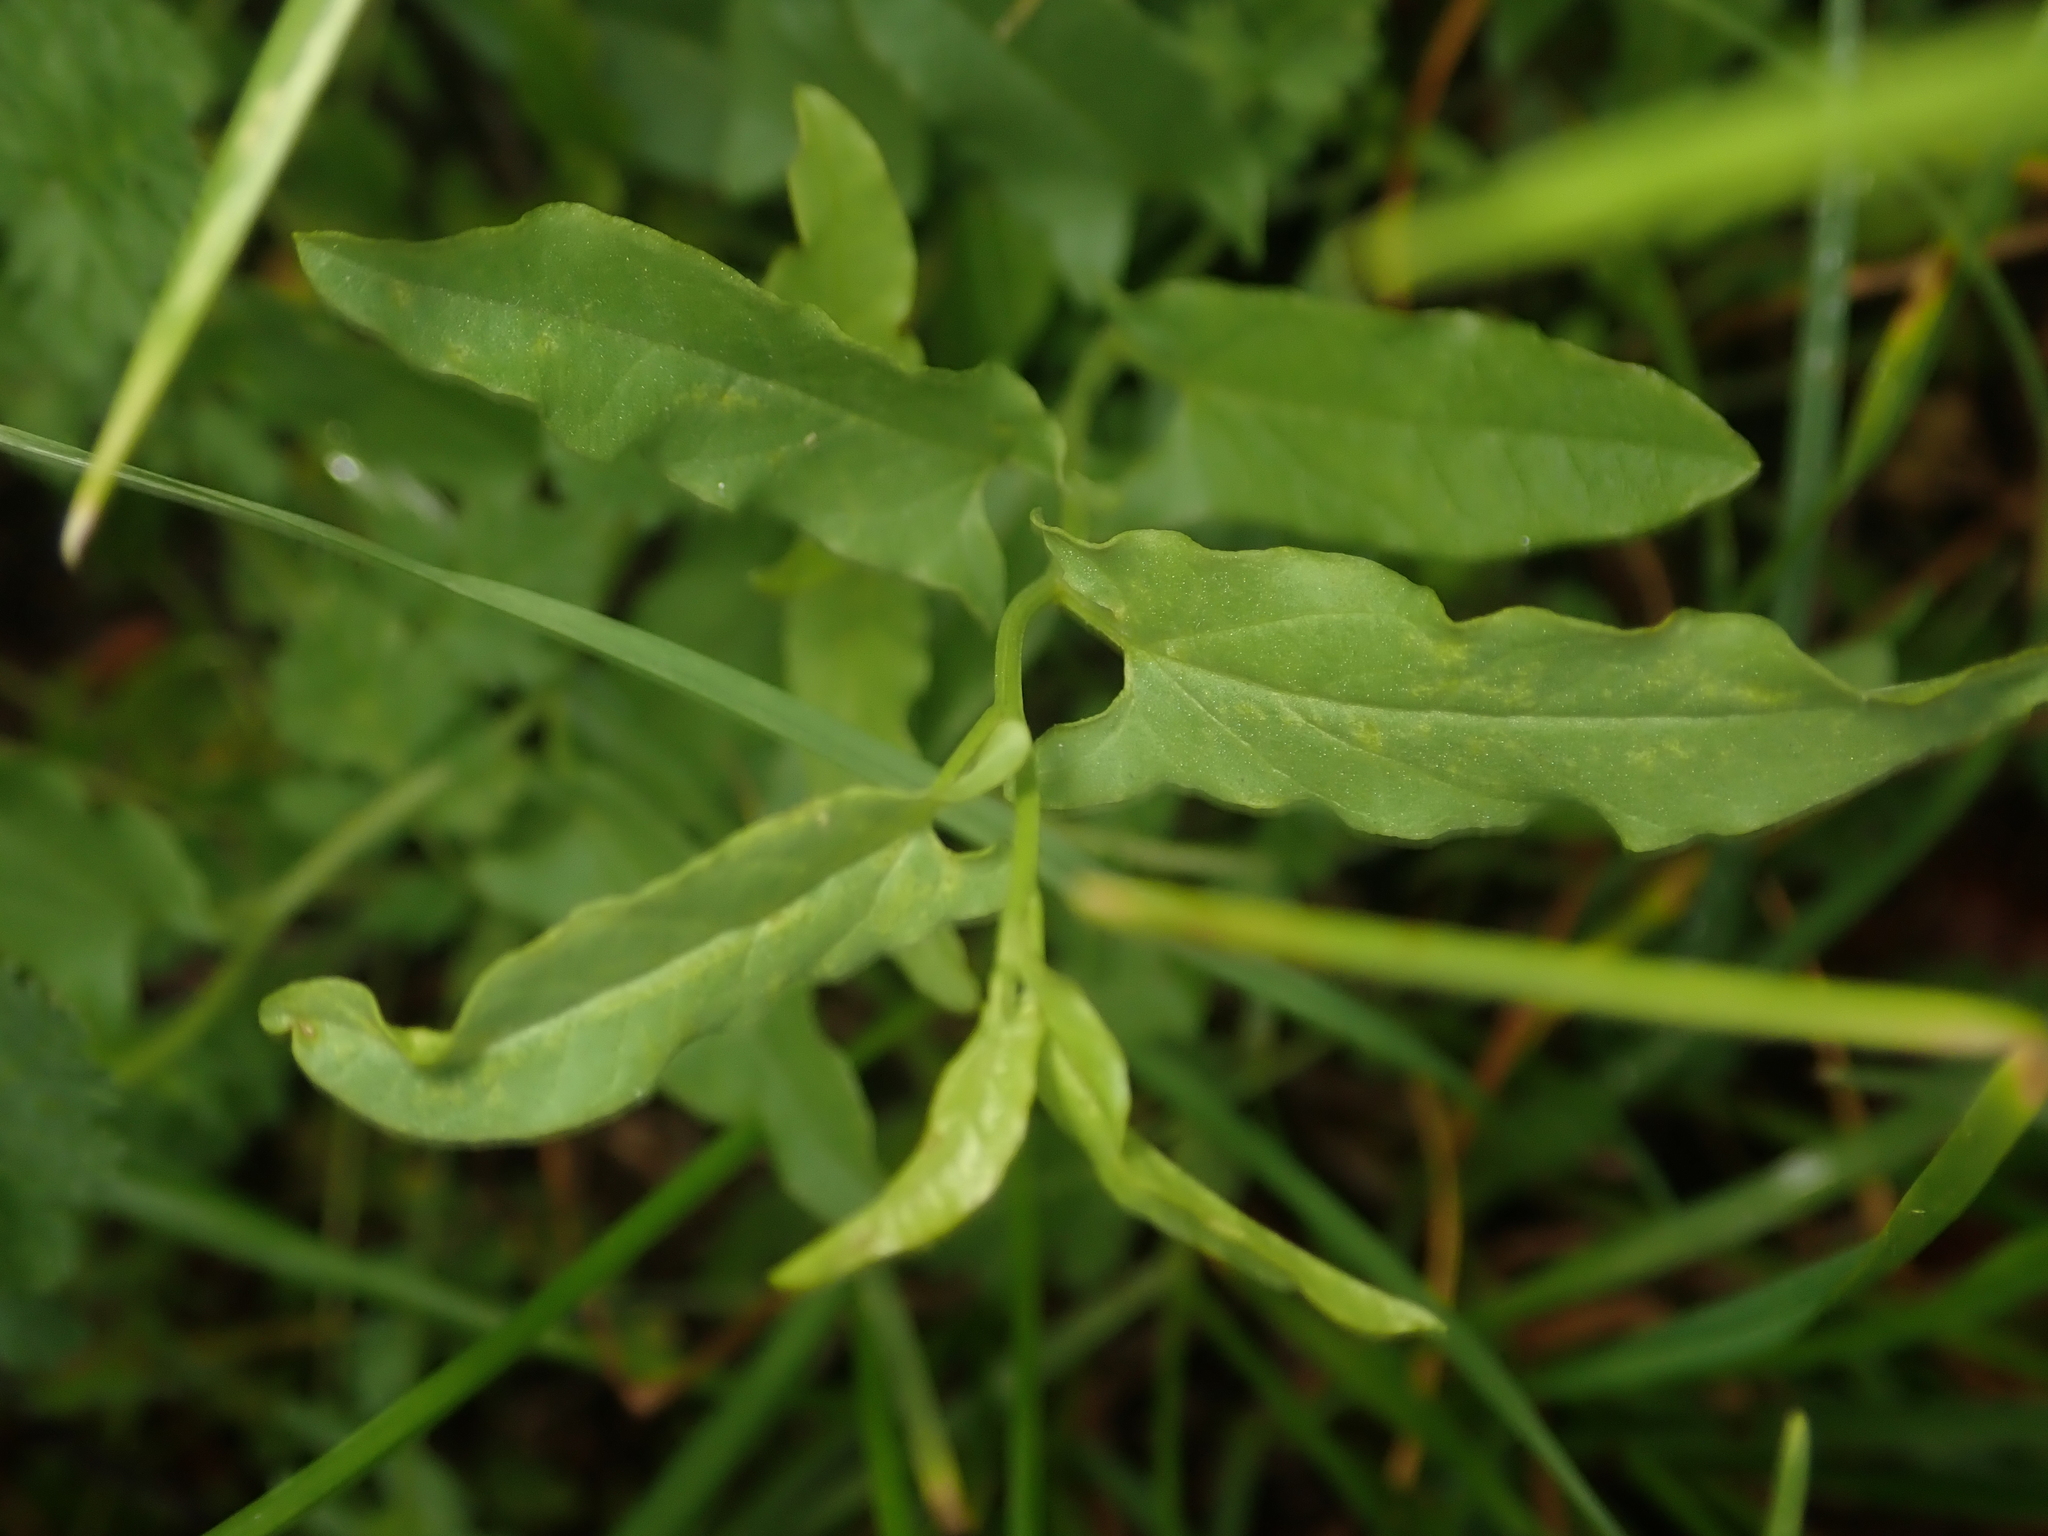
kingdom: Plantae
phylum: Tracheophyta
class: Magnoliopsida
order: Solanales
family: Convolvulaceae
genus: Convolvulus
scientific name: Convolvulus arvensis
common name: Field bindweed
